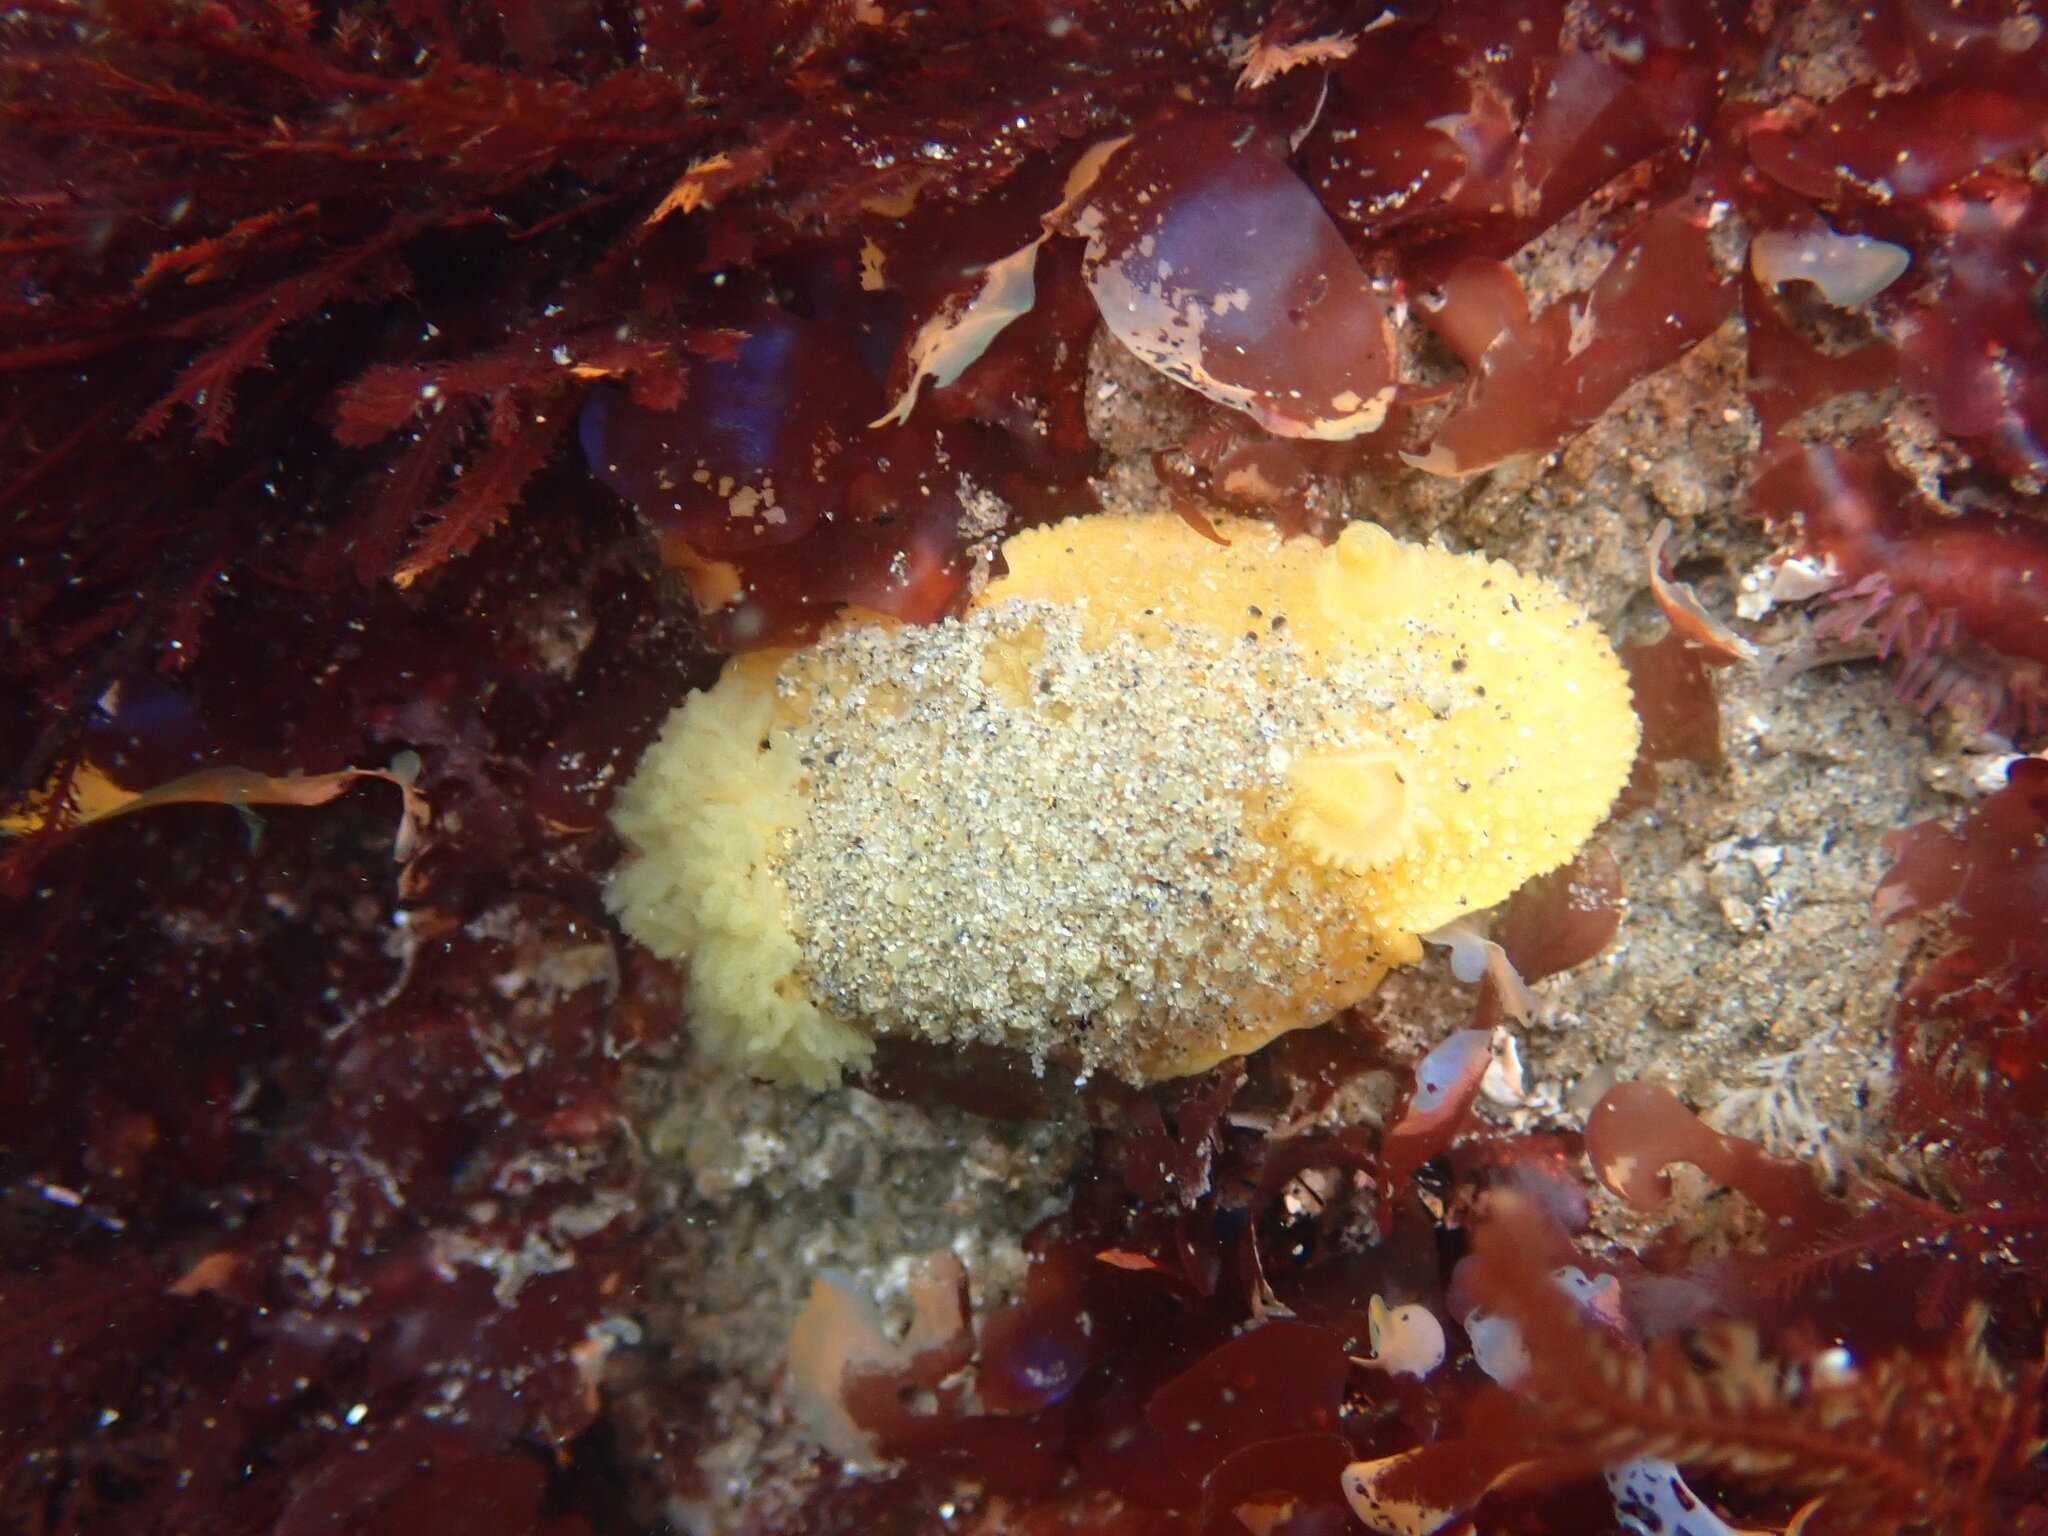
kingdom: Animalia
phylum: Mollusca
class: Gastropoda
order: Nudibranchia
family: Dorididae
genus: Doris
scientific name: Doris montereyensis
